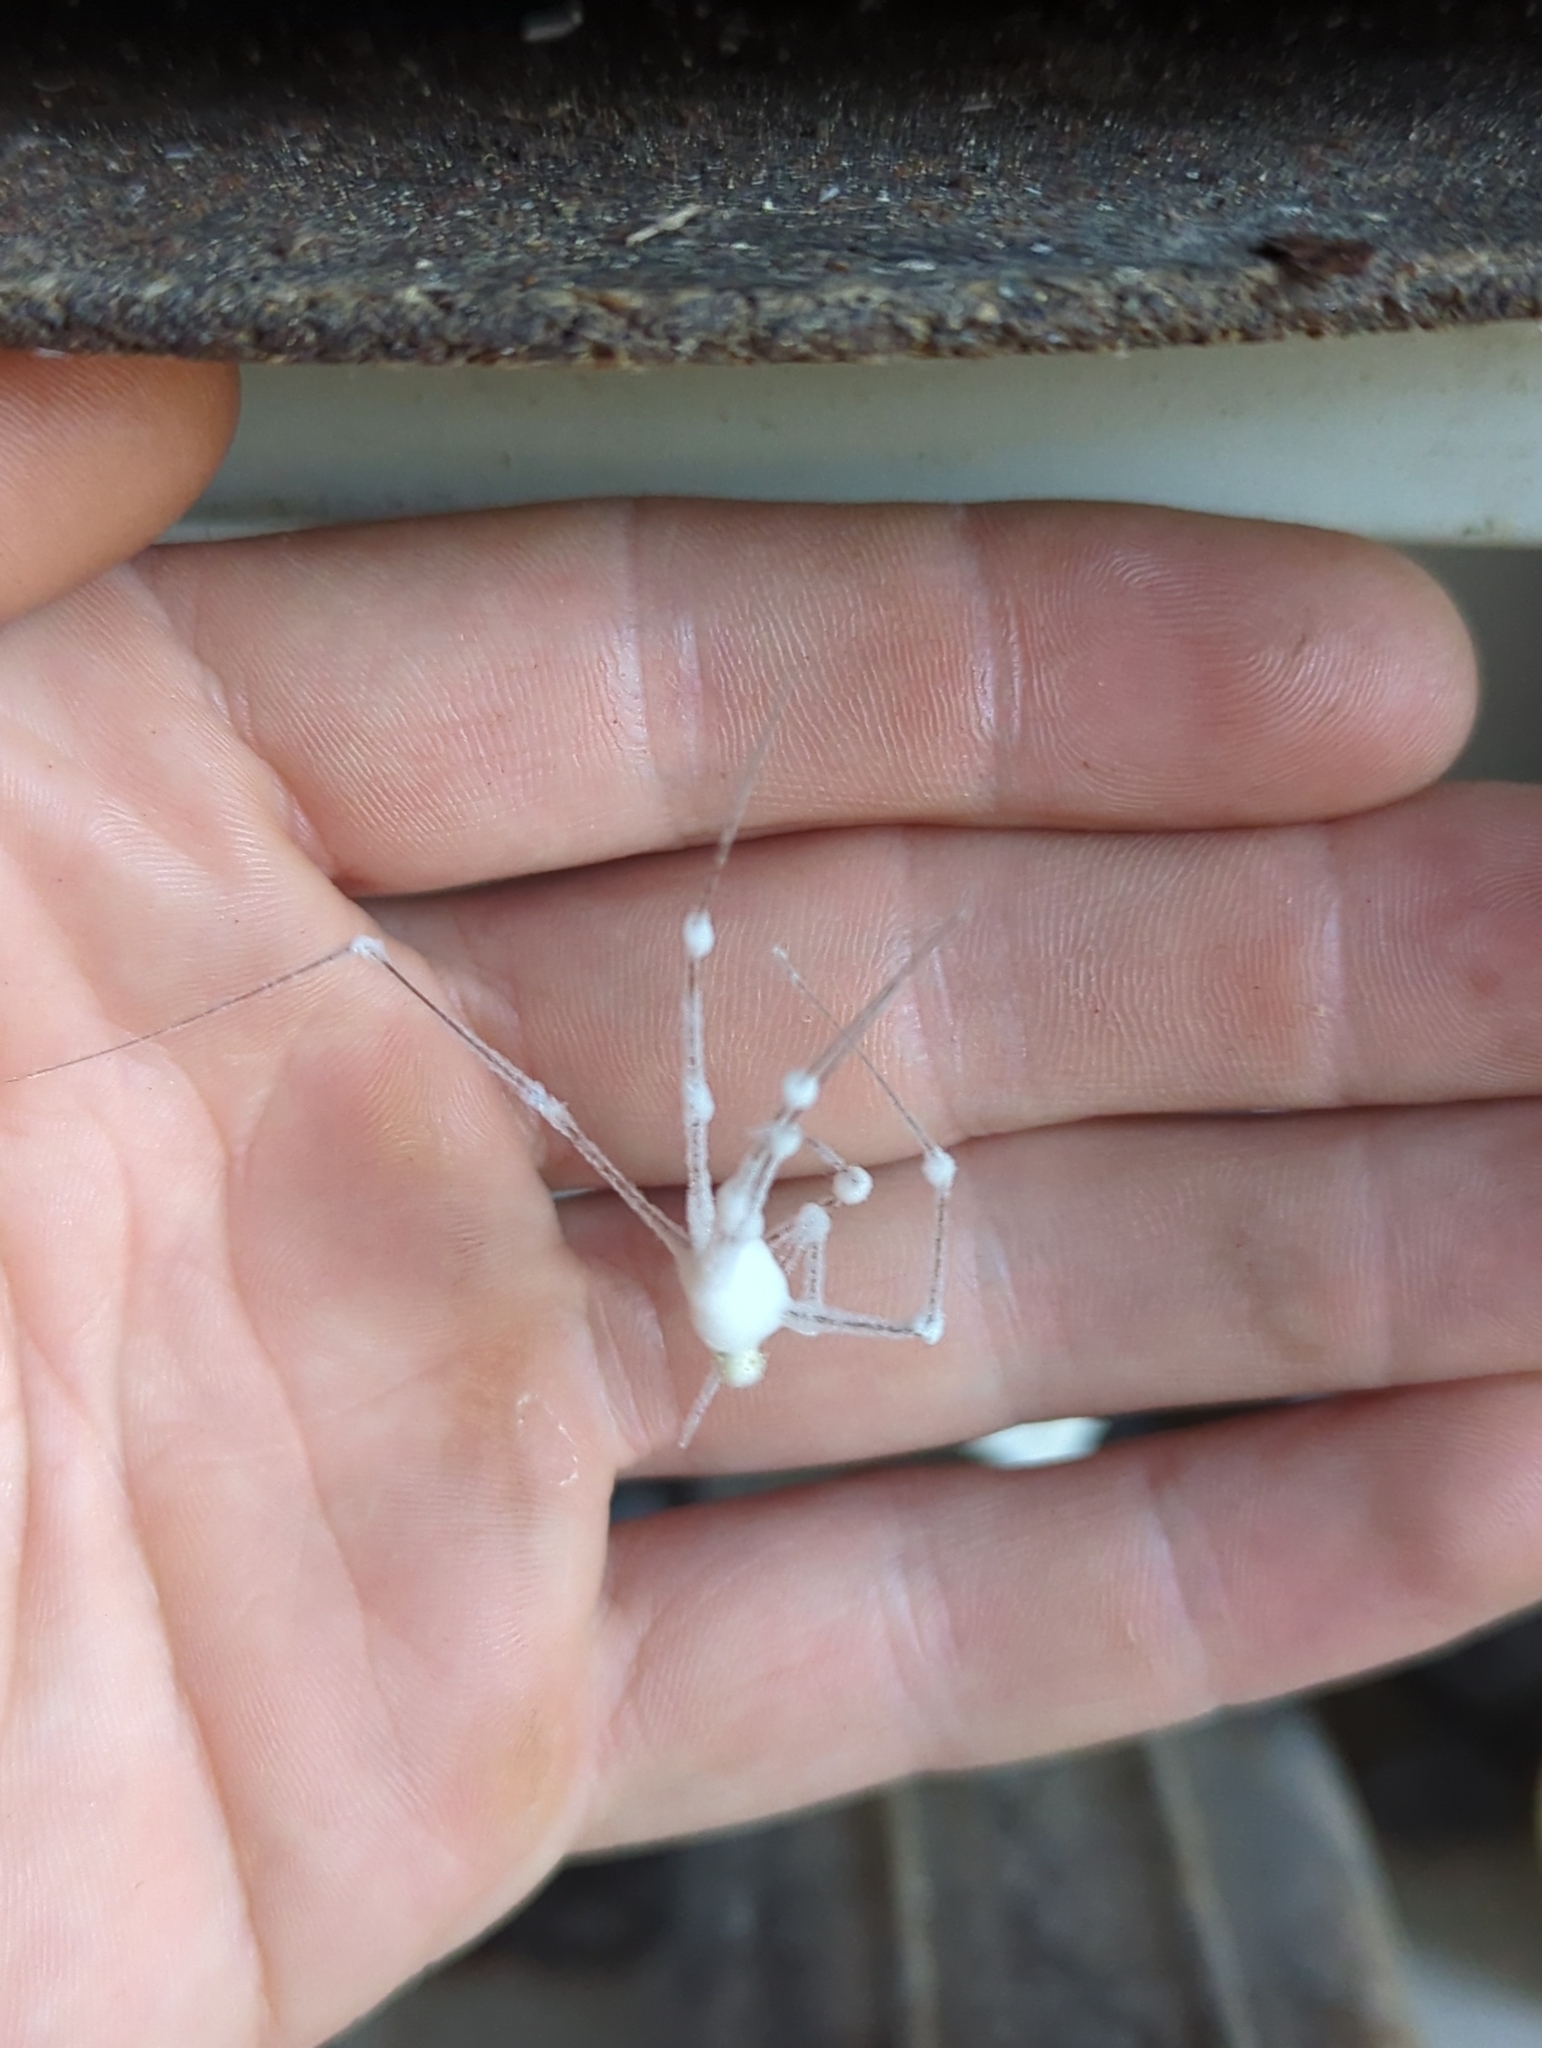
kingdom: Fungi
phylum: Ascomycota
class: Sordariomycetes
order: Hypocreales
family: Cordycipitaceae
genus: Lecanicillium
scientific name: Lecanicillium tenuipes
